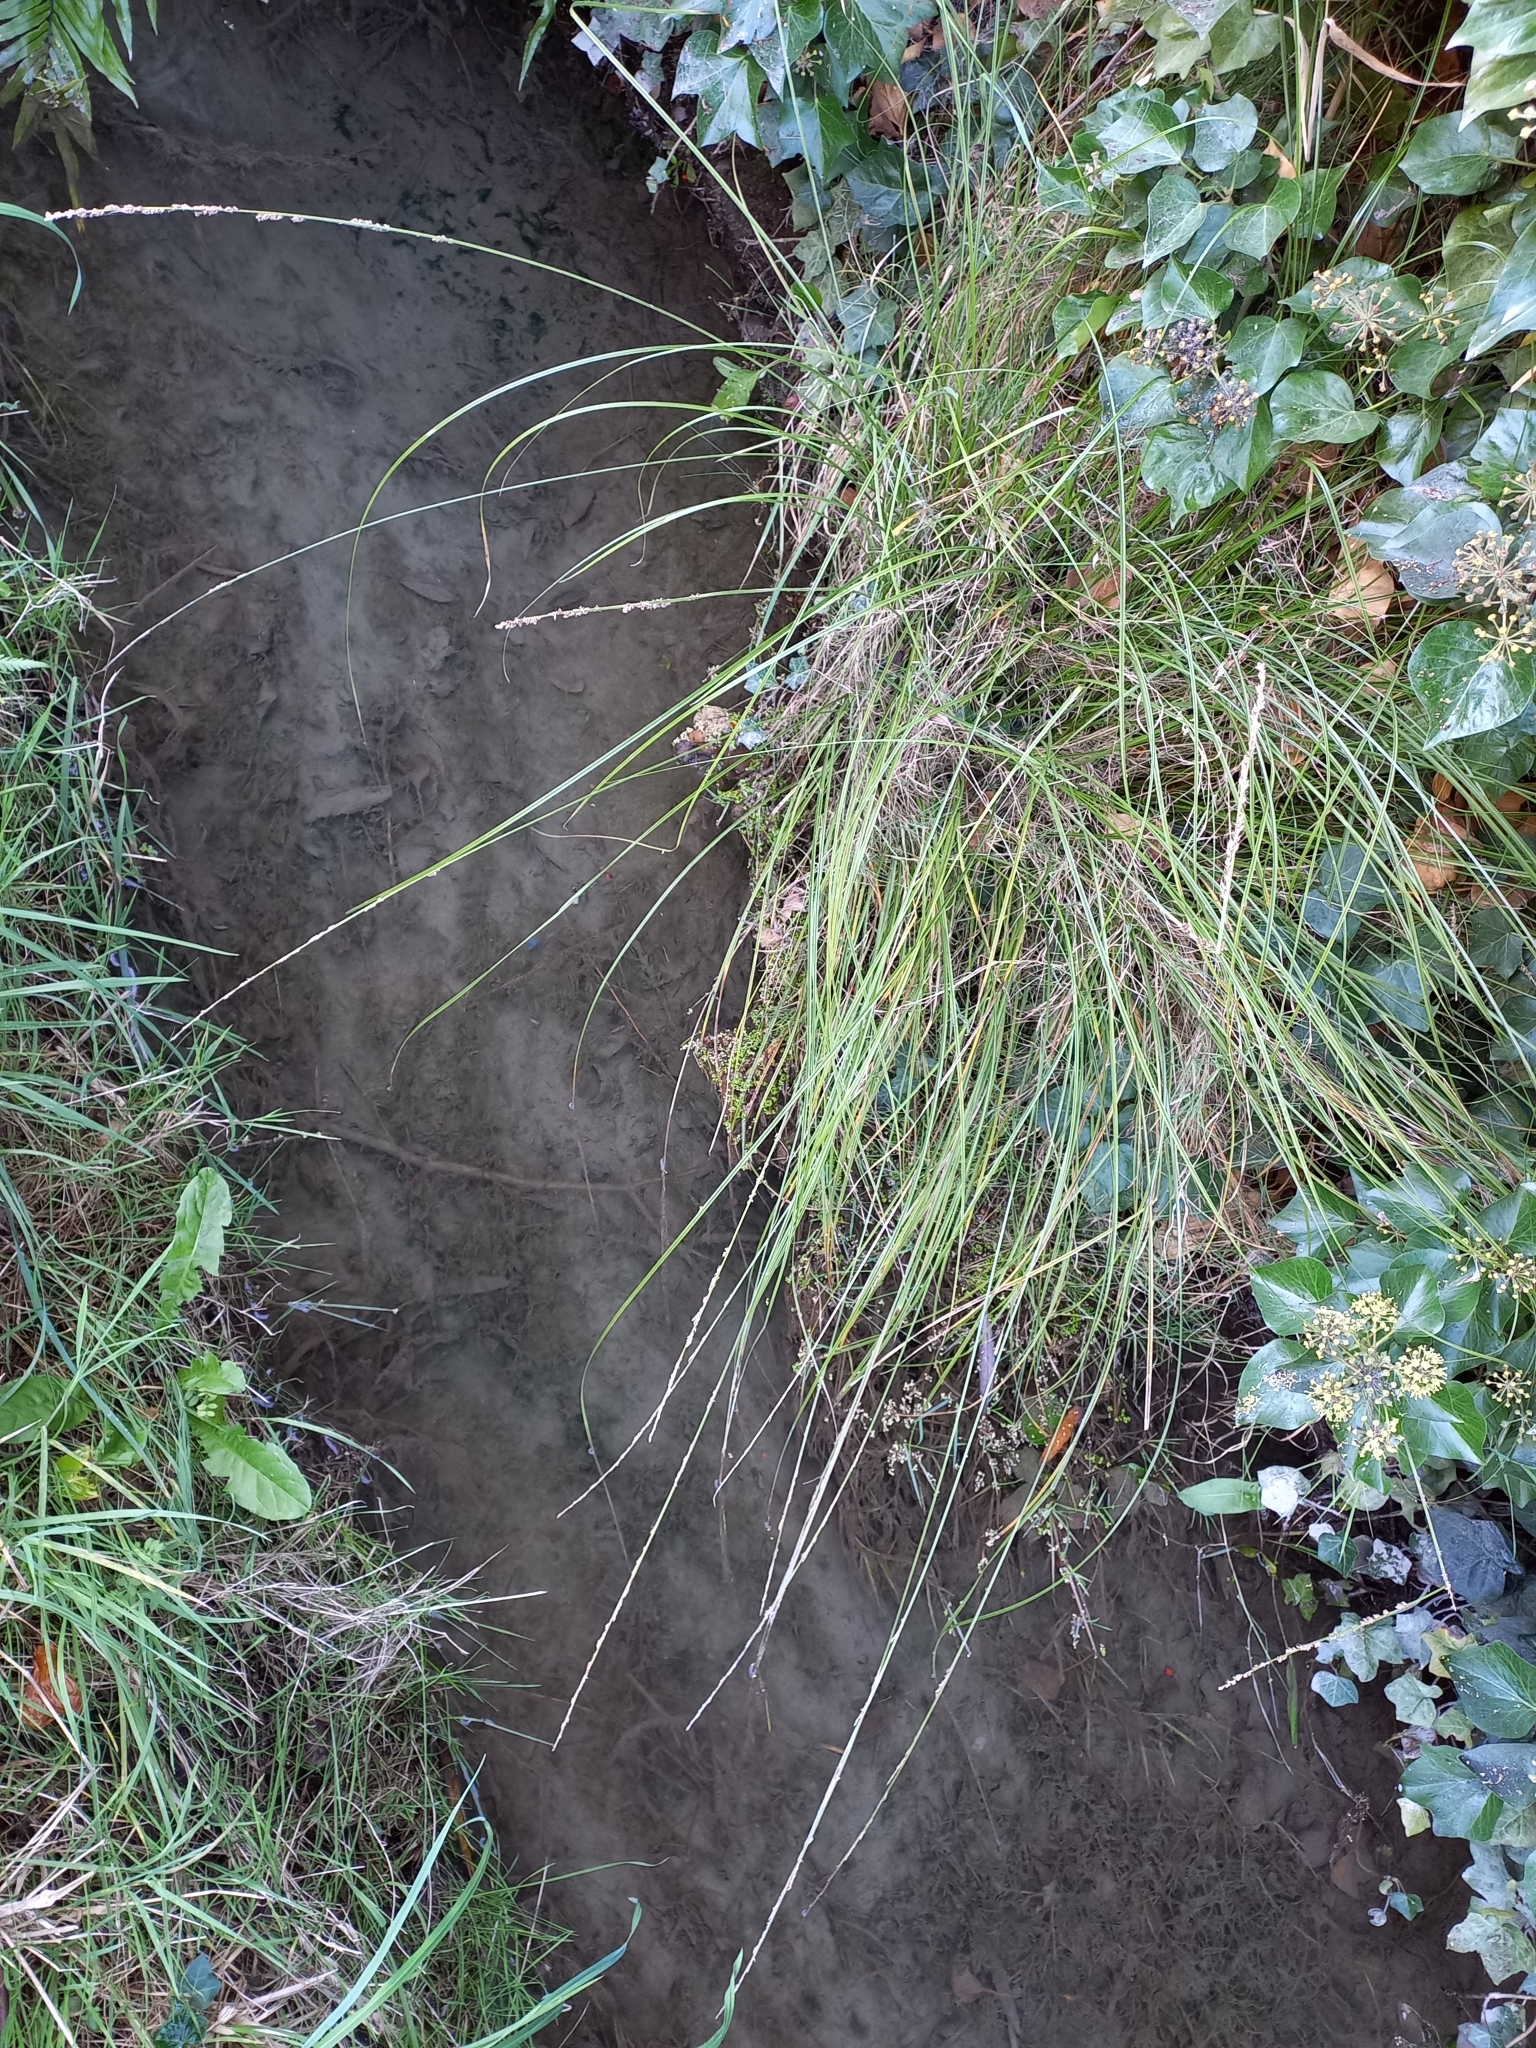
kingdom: Plantae
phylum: Tracheophyta
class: Liliopsida
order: Poales
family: Cyperaceae
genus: Carex
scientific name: Carex virgata
